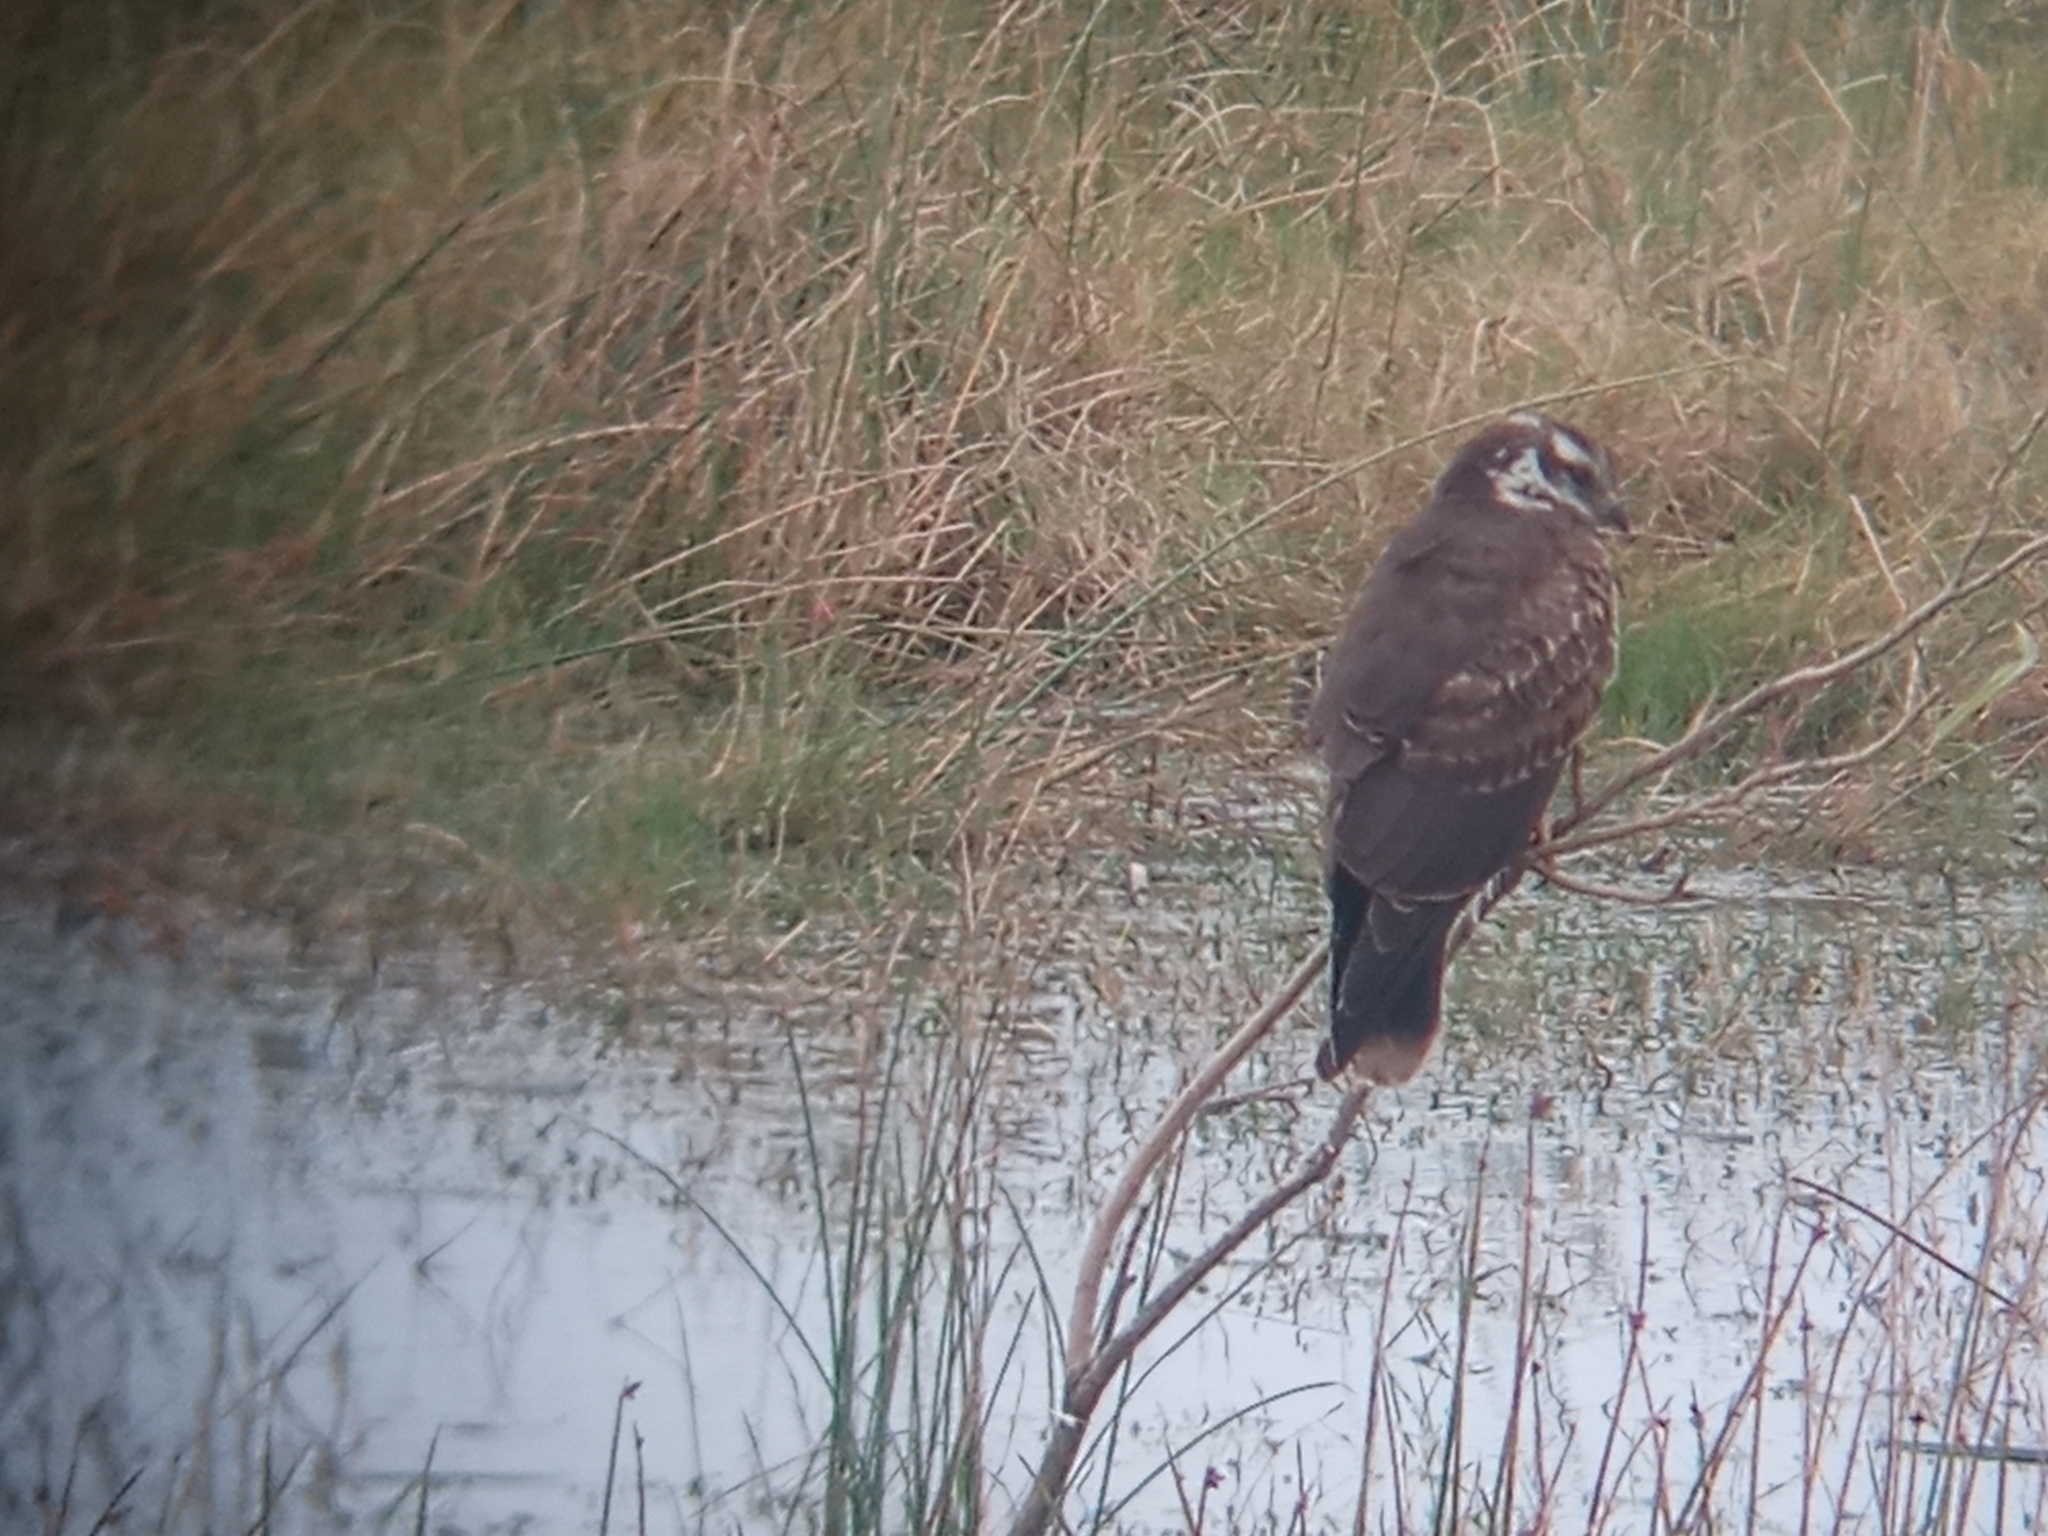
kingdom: Animalia
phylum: Chordata
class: Aves
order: Accipitriformes
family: Accipitridae
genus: Rostrhamus
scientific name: Rostrhamus sociabilis
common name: Snail kite
